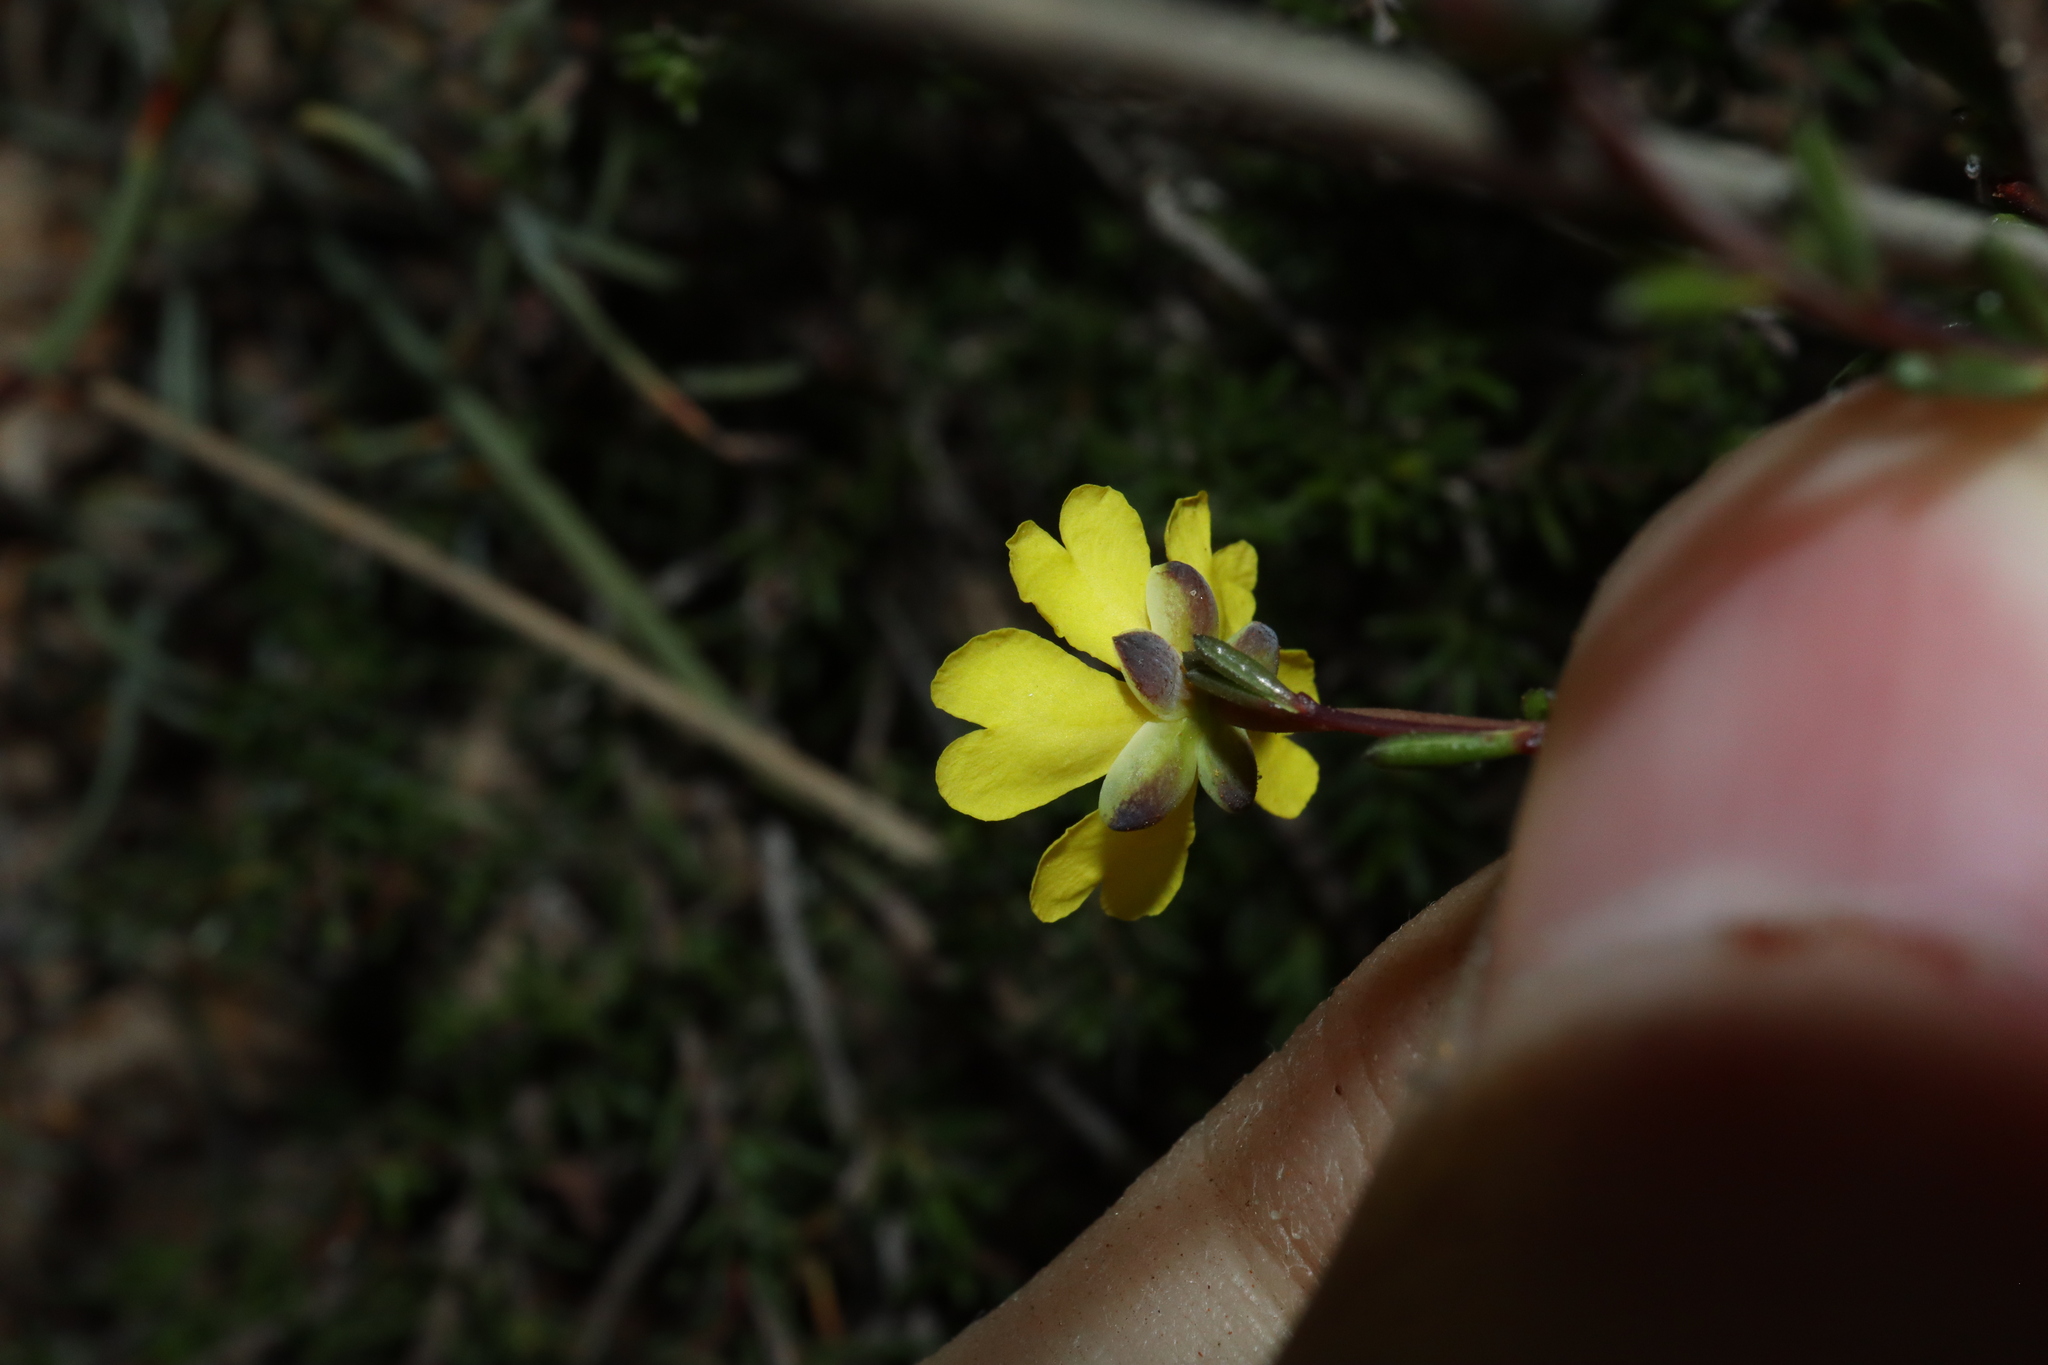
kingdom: Plantae
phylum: Tracheophyta
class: Magnoliopsida
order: Dilleniales
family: Dilleniaceae
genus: Hibbertia
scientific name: Hibbertia gracilipes
